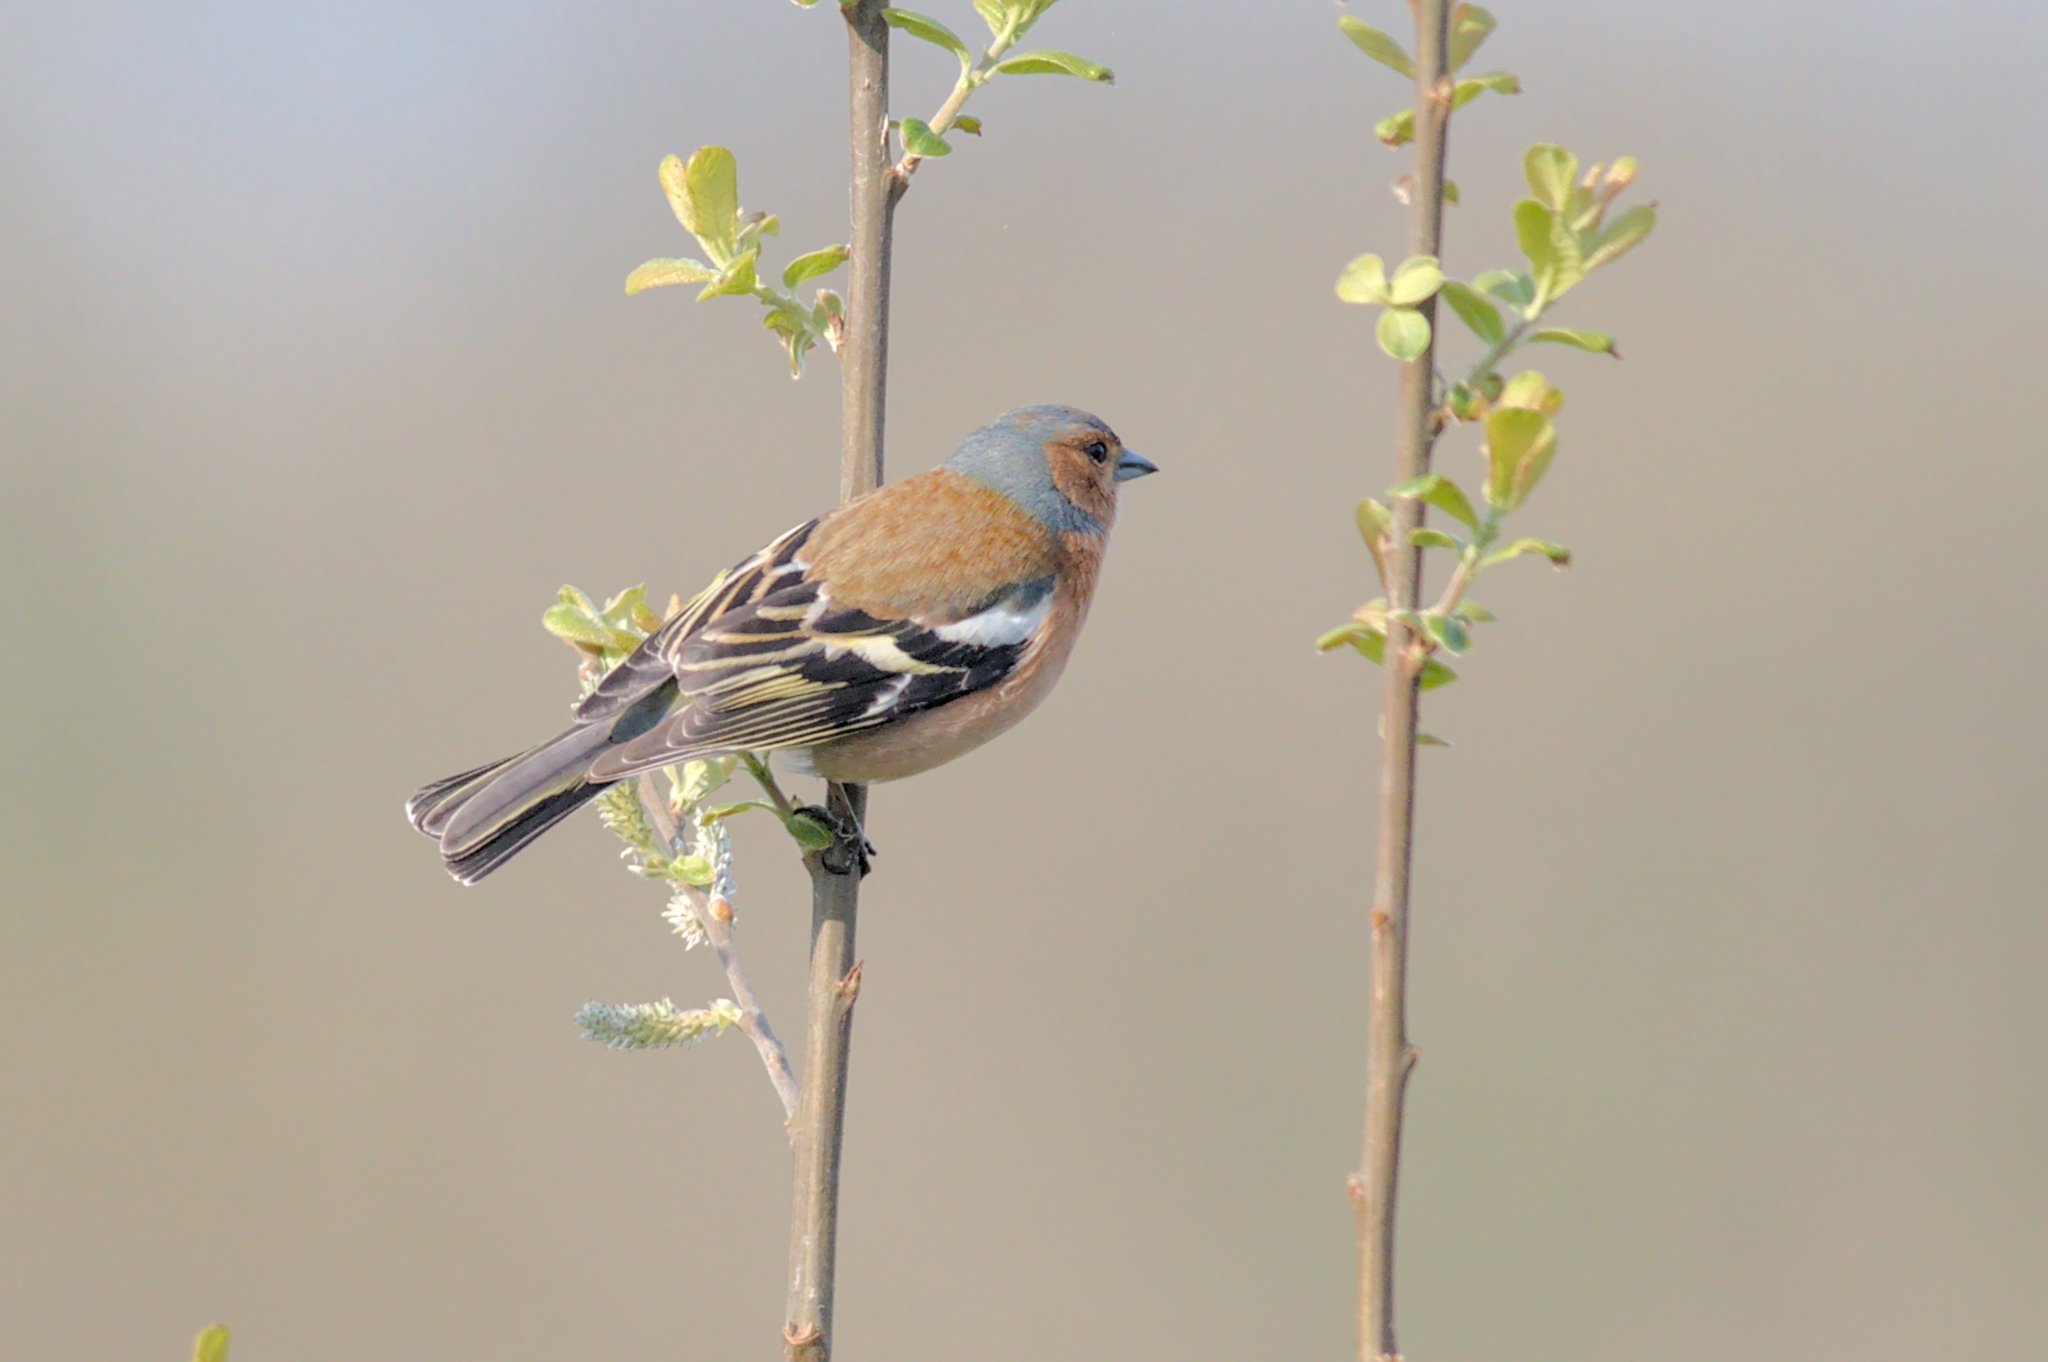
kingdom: Animalia
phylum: Chordata
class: Aves
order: Passeriformes
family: Fringillidae
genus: Fringilla
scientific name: Fringilla coelebs
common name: Common chaffinch
